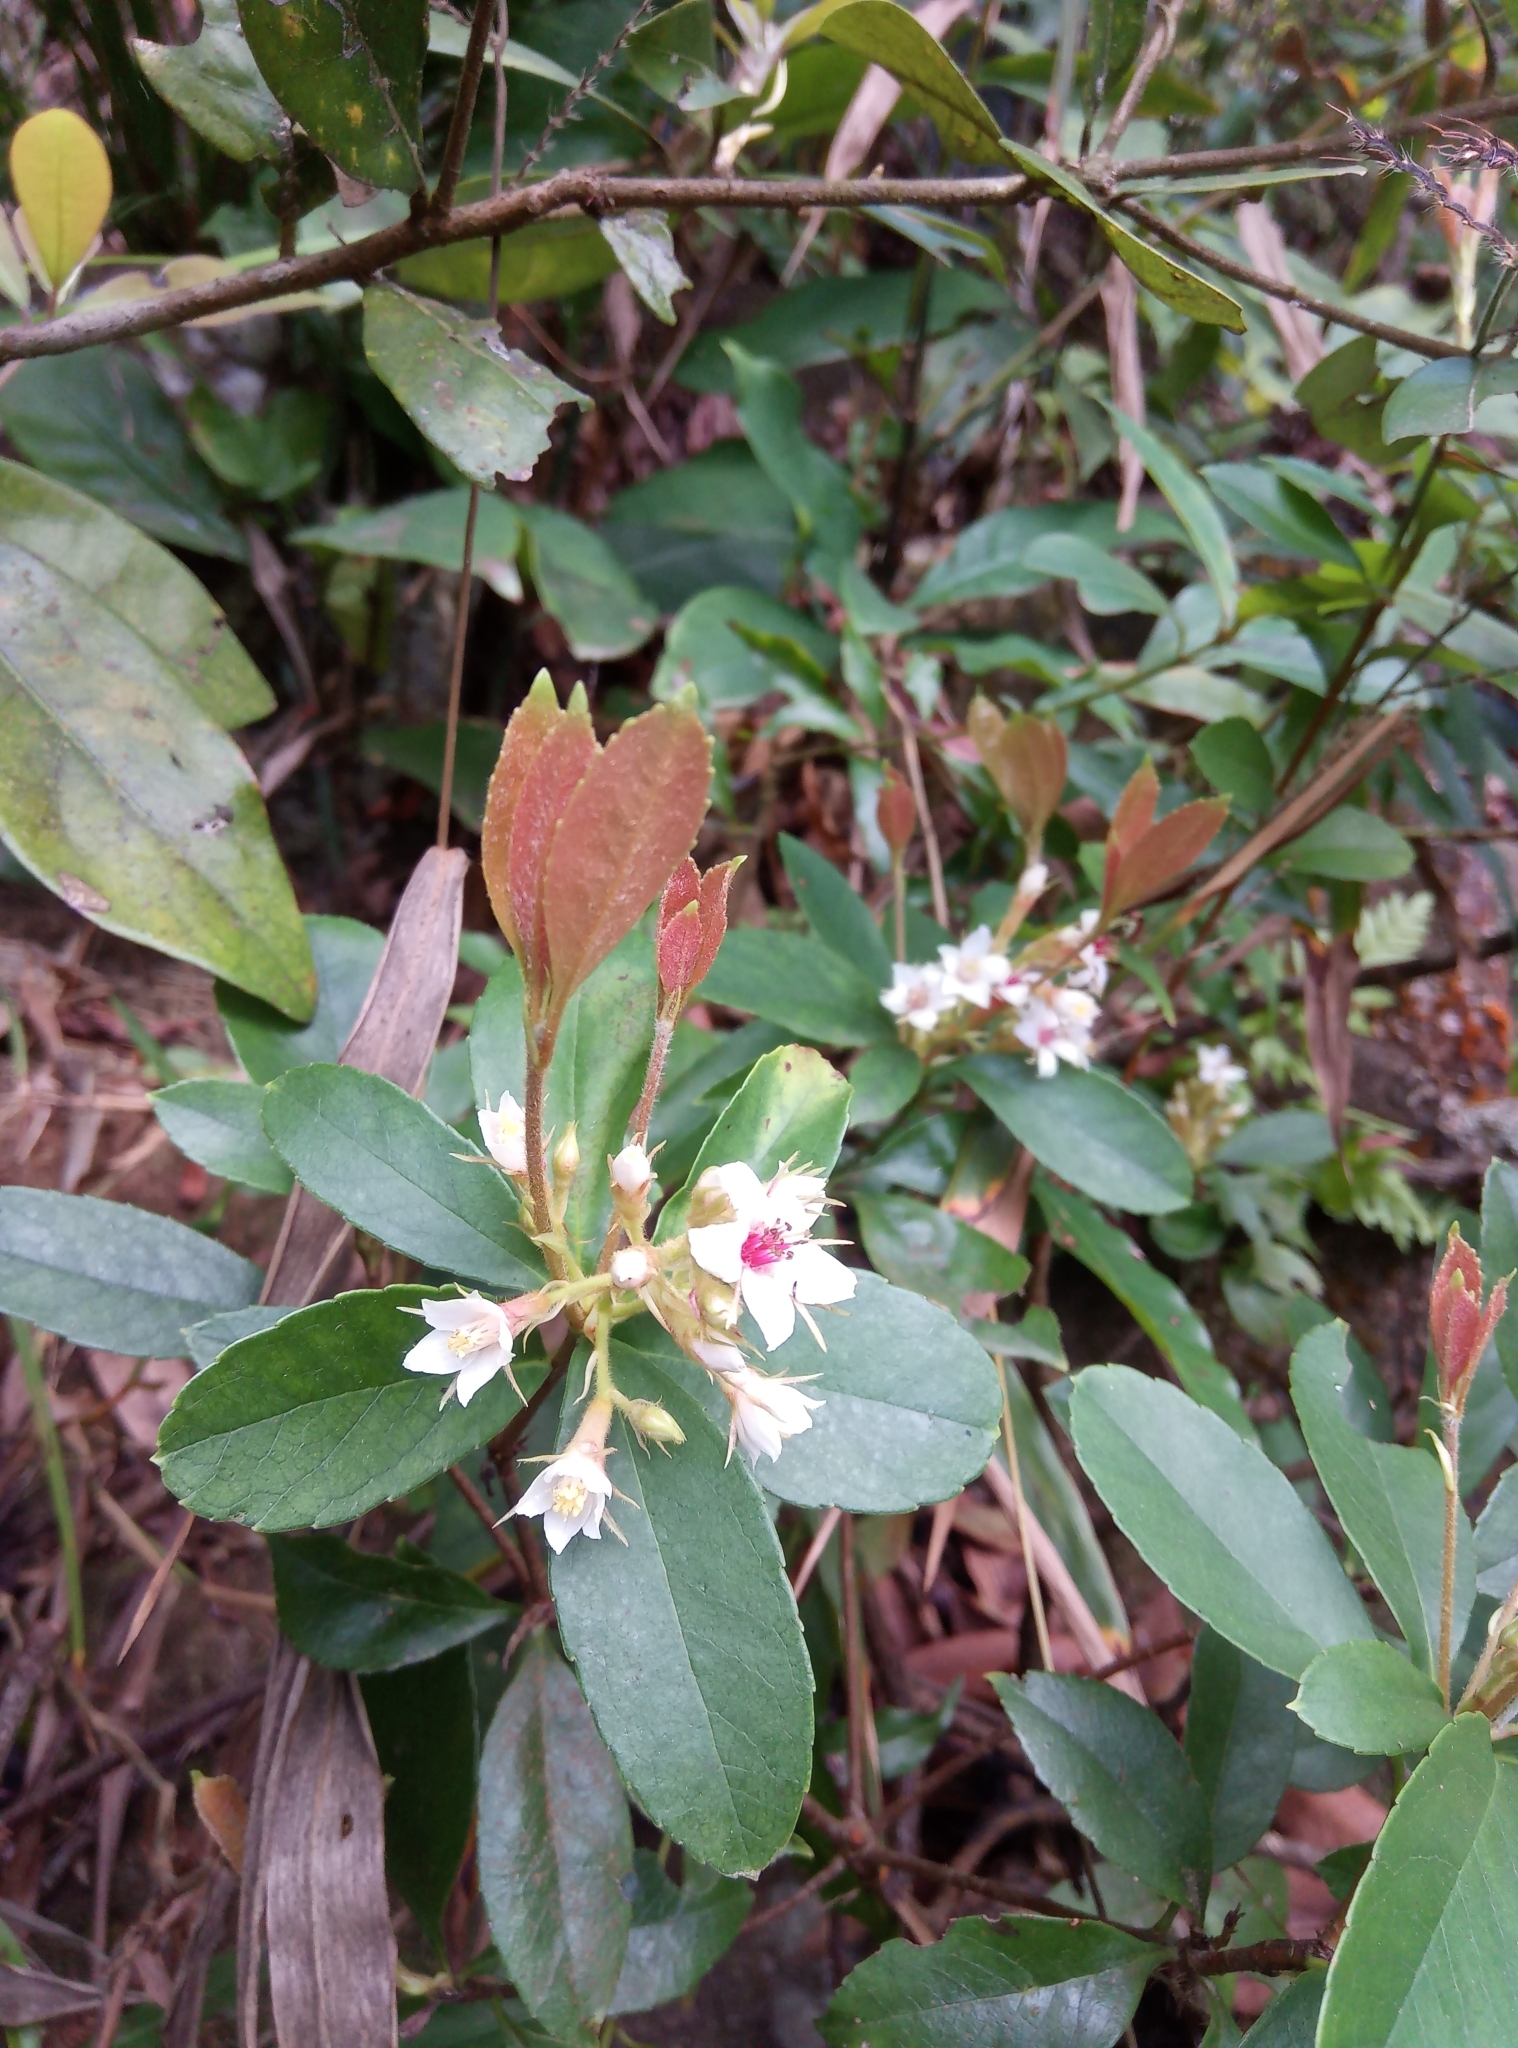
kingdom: Plantae
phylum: Tracheophyta
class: Magnoliopsida
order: Rosales
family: Rosaceae
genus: Rhaphiolepis
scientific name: Rhaphiolepis indica
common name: India-hawthorn
